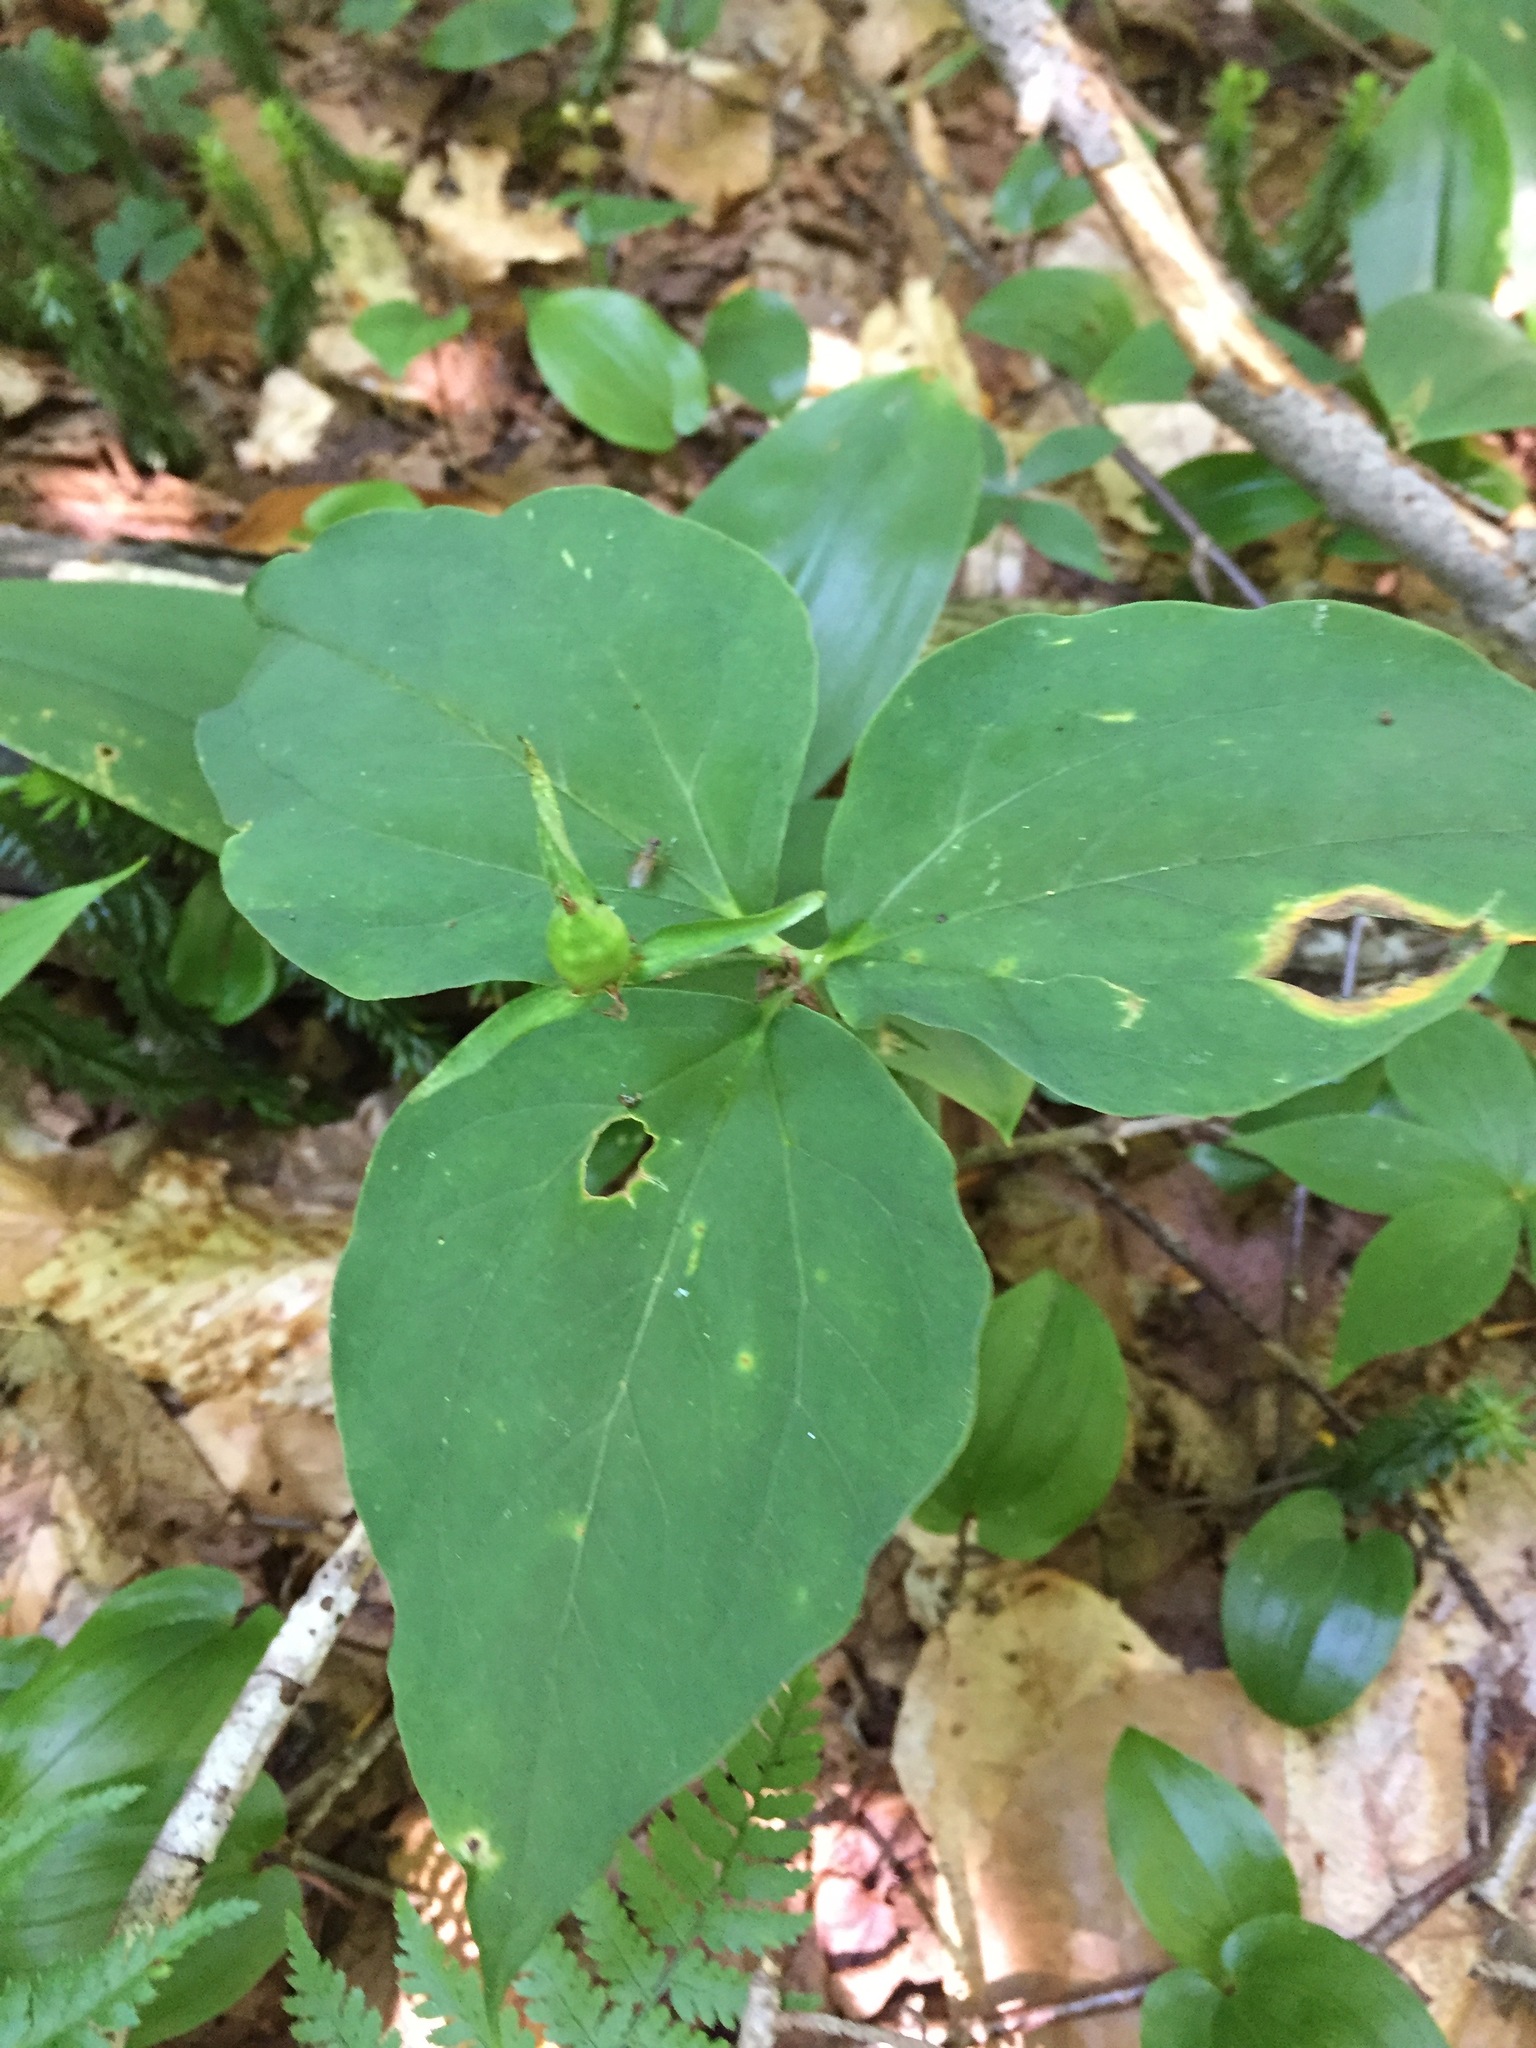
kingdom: Plantae
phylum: Tracheophyta
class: Liliopsida
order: Liliales
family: Melanthiaceae
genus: Trillium
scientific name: Trillium undulatum
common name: Paint trillium
